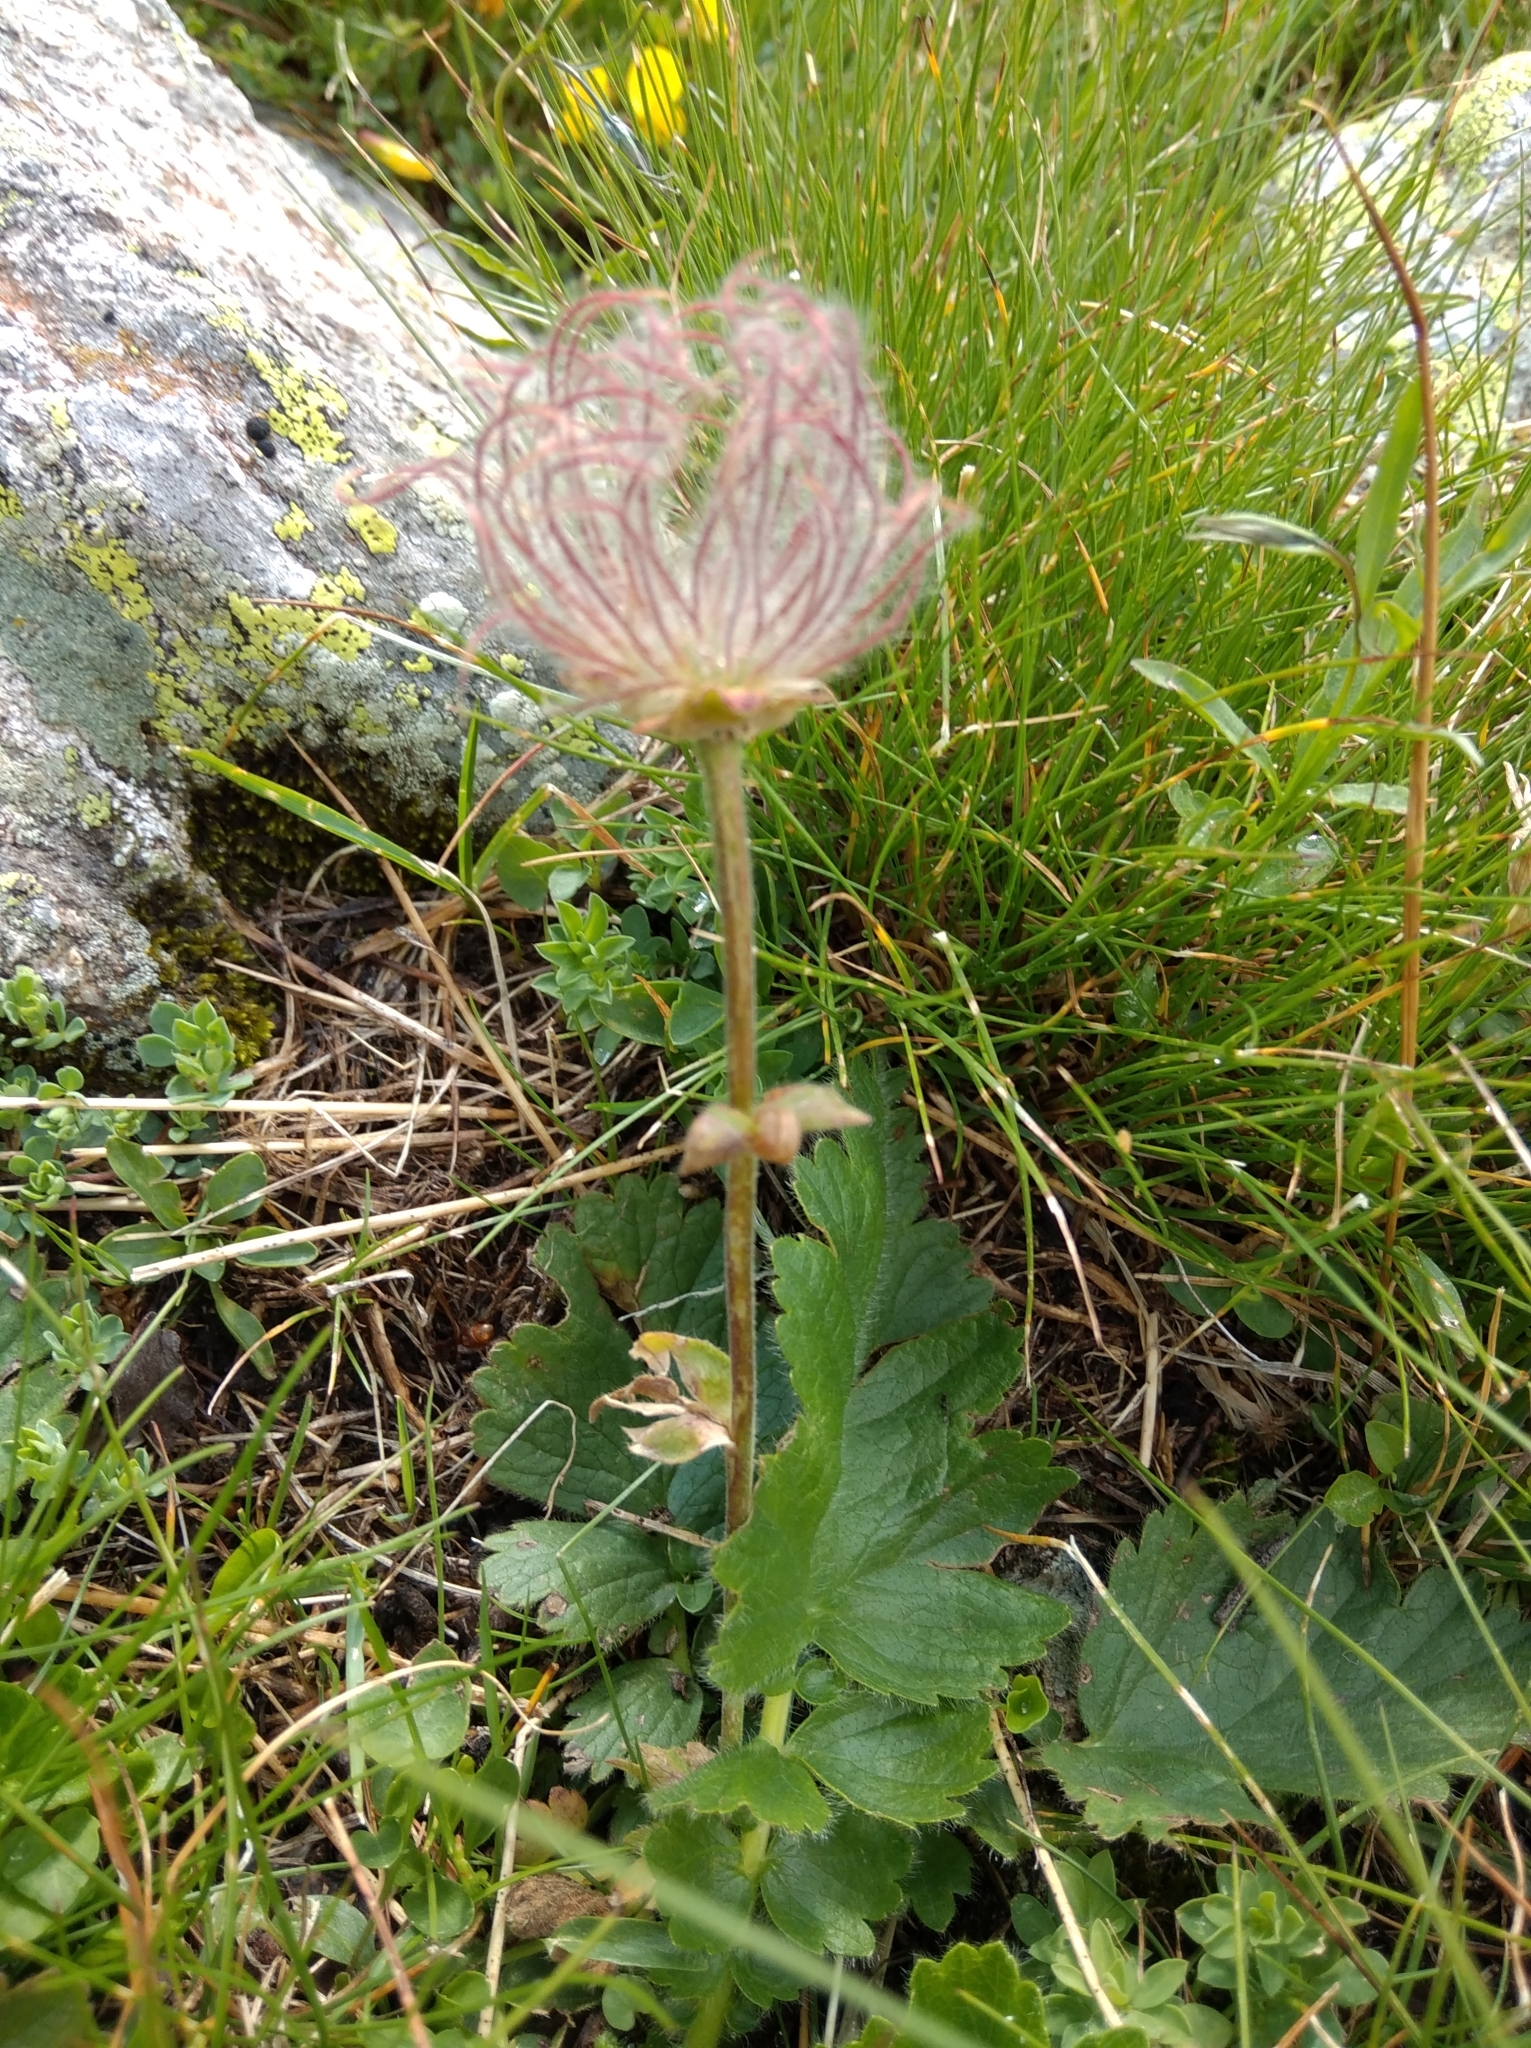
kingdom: Plantae
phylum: Tracheophyta
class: Magnoliopsida
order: Rosales
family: Rosaceae
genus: Geum
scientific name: Geum montanum
